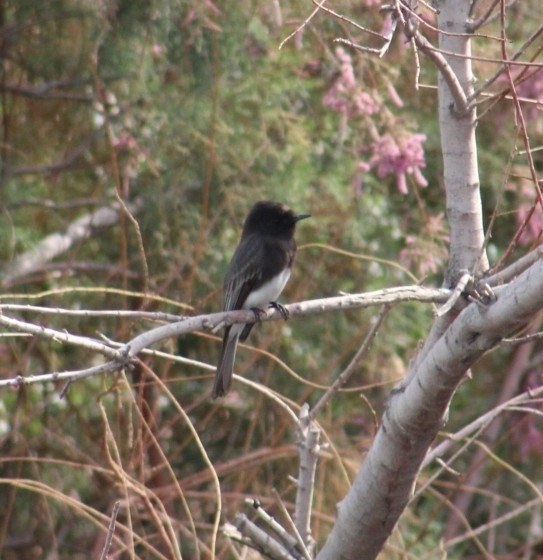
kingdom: Animalia
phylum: Chordata
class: Aves
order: Passeriformes
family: Tyrannidae
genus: Sayornis
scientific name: Sayornis nigricans
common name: Black phoebe
